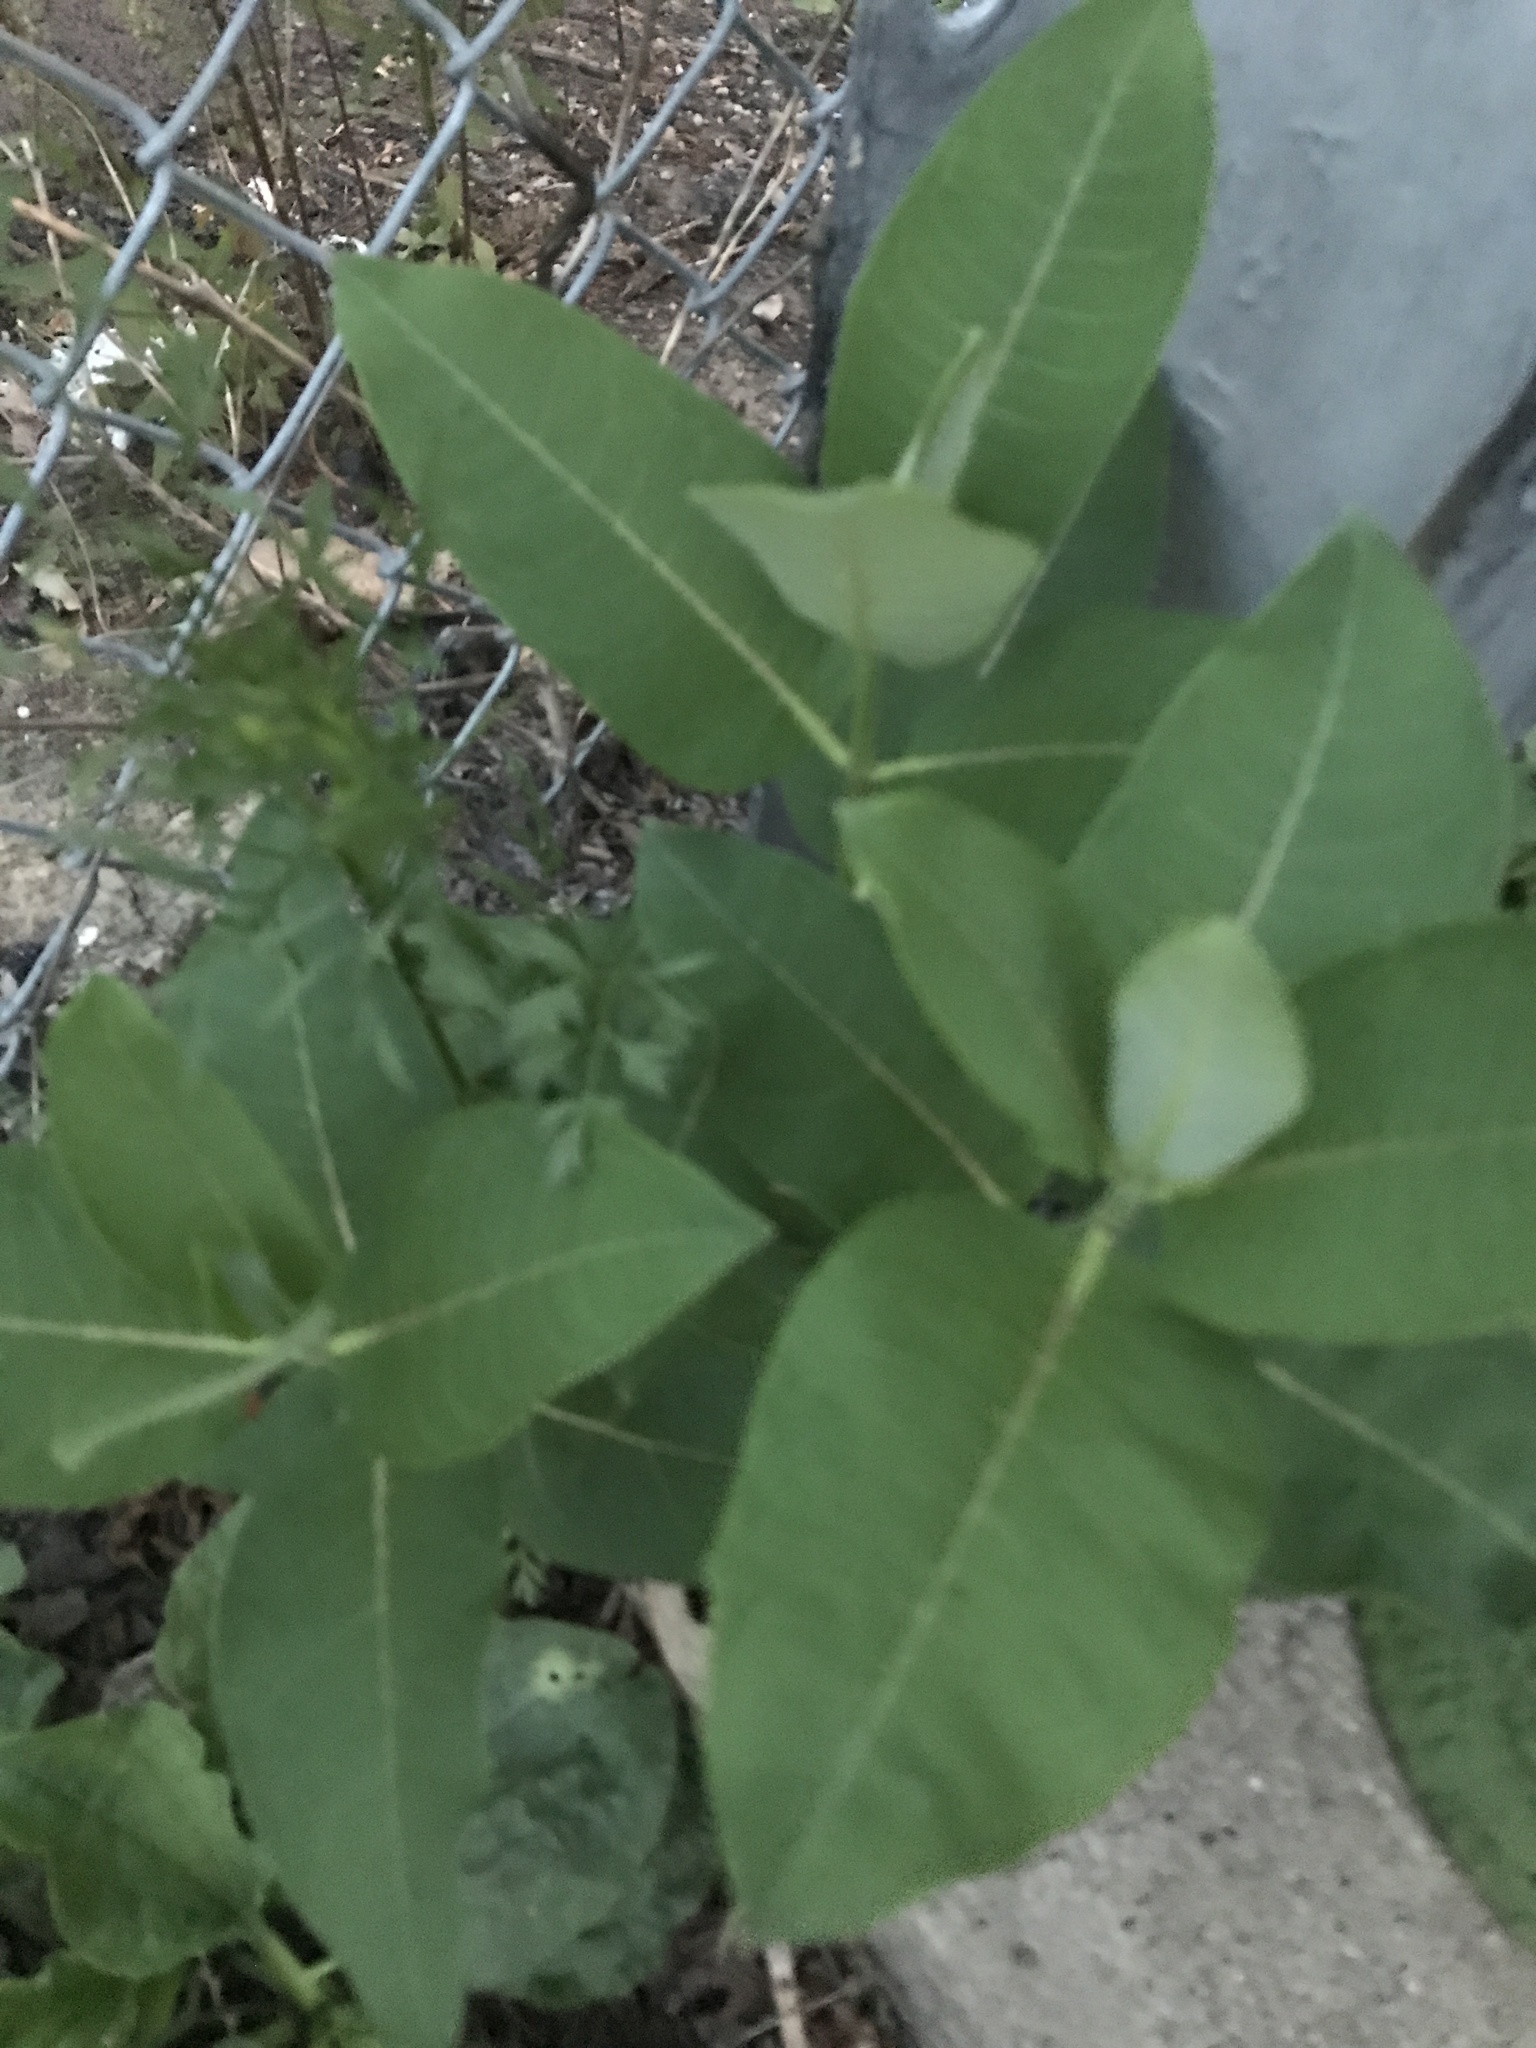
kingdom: Plantae
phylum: Tracheophyta
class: Magnoliopsida
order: Gentianales
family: Apocynaceae
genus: Asclepias
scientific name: Asclepias syriaca
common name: Common milkweed
